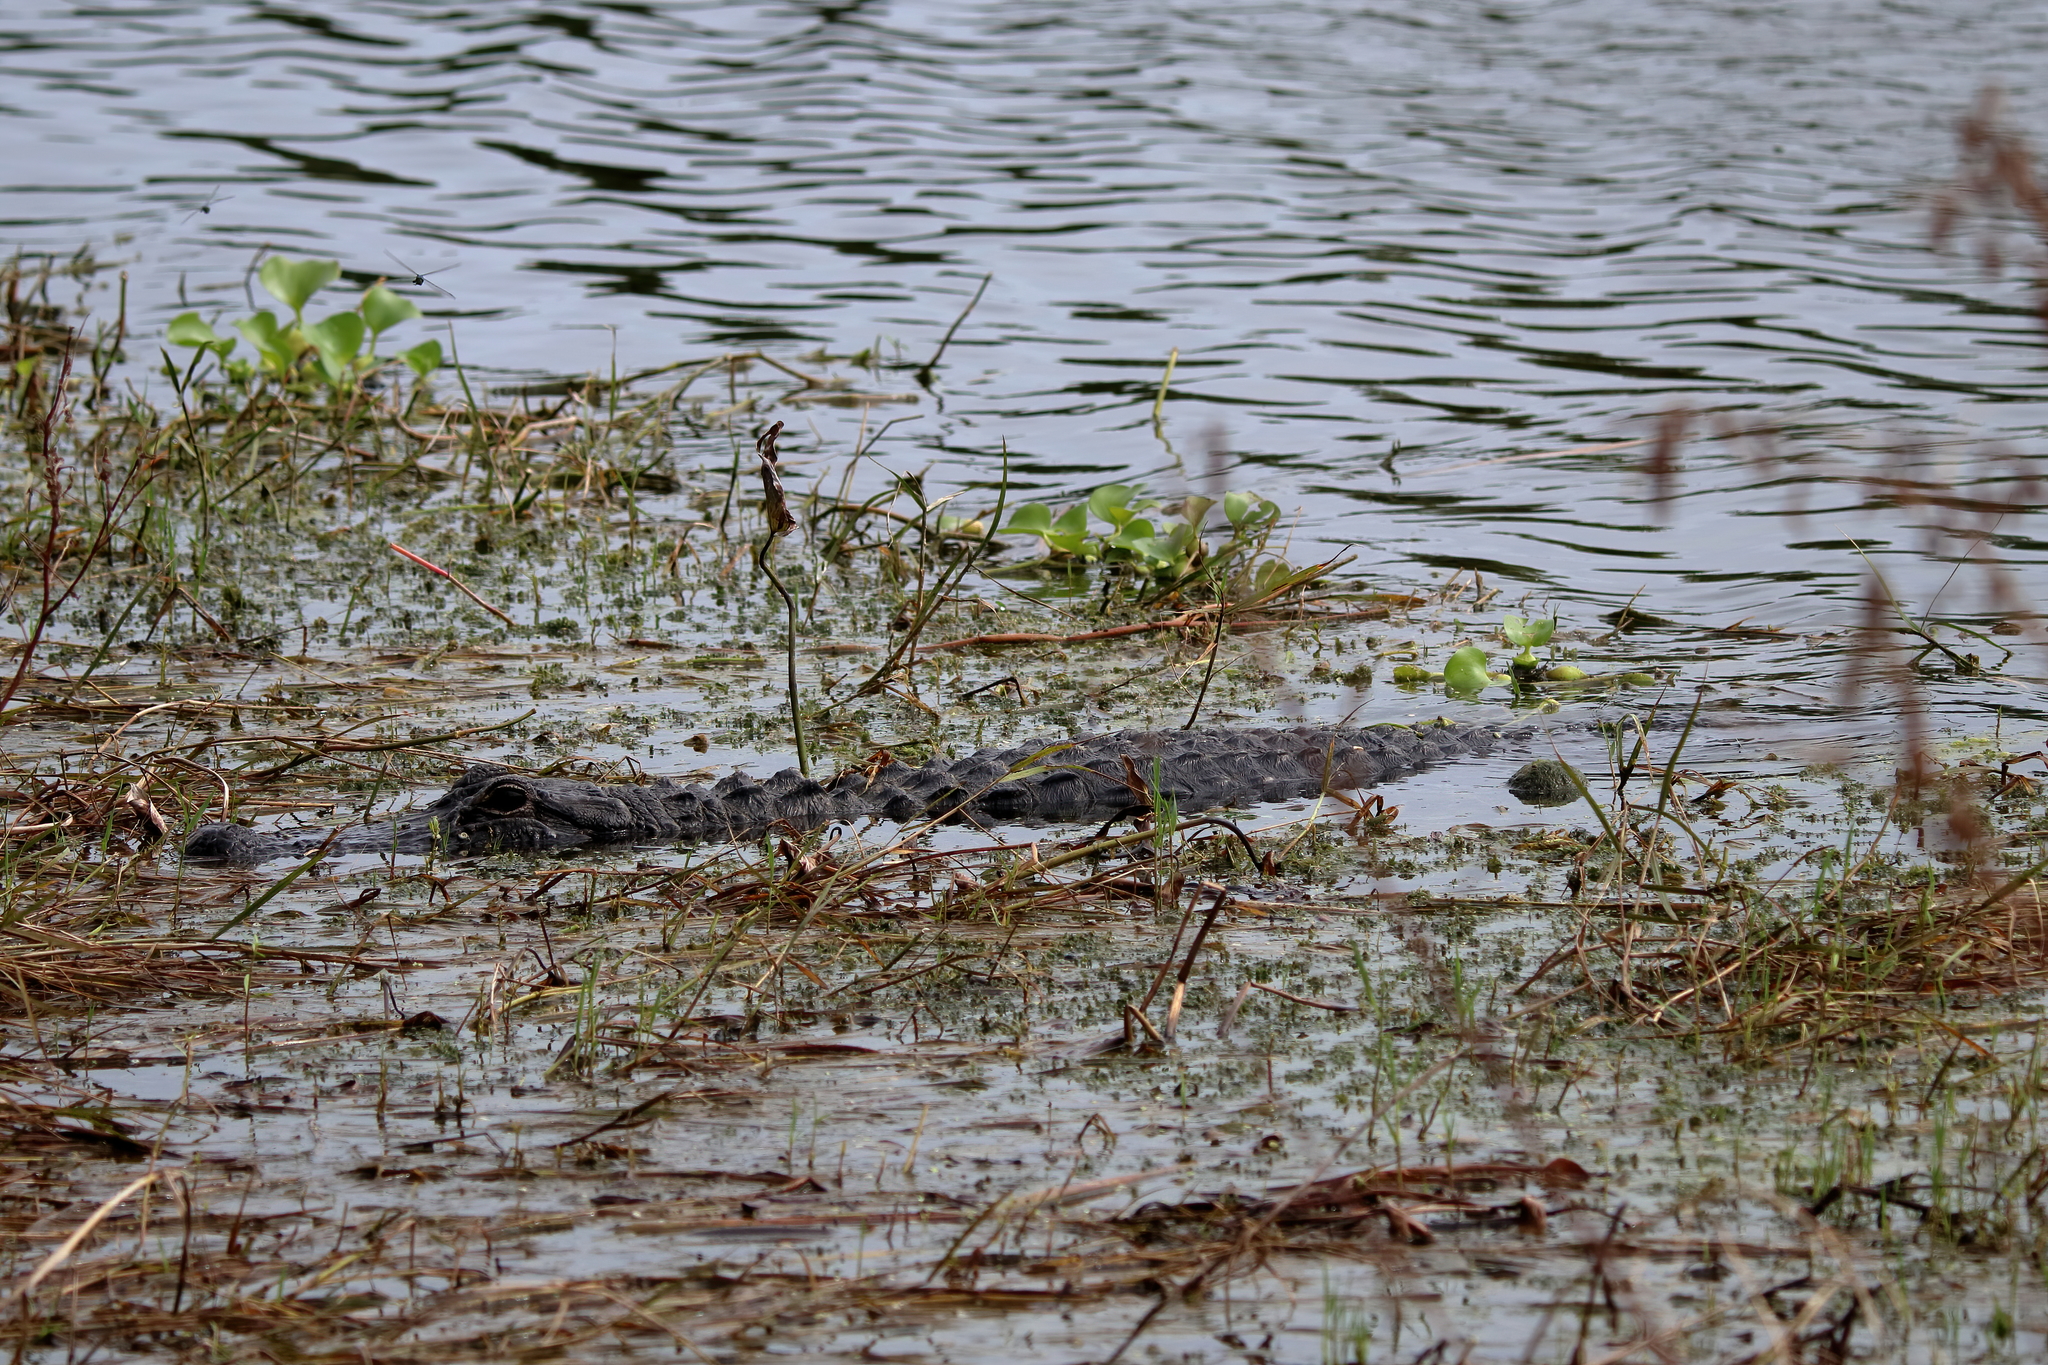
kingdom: Animalia
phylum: Chordata
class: Crocodylia
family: Alligatoridae
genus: Alligator
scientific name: Alligator mississippiensis
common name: American alligator
